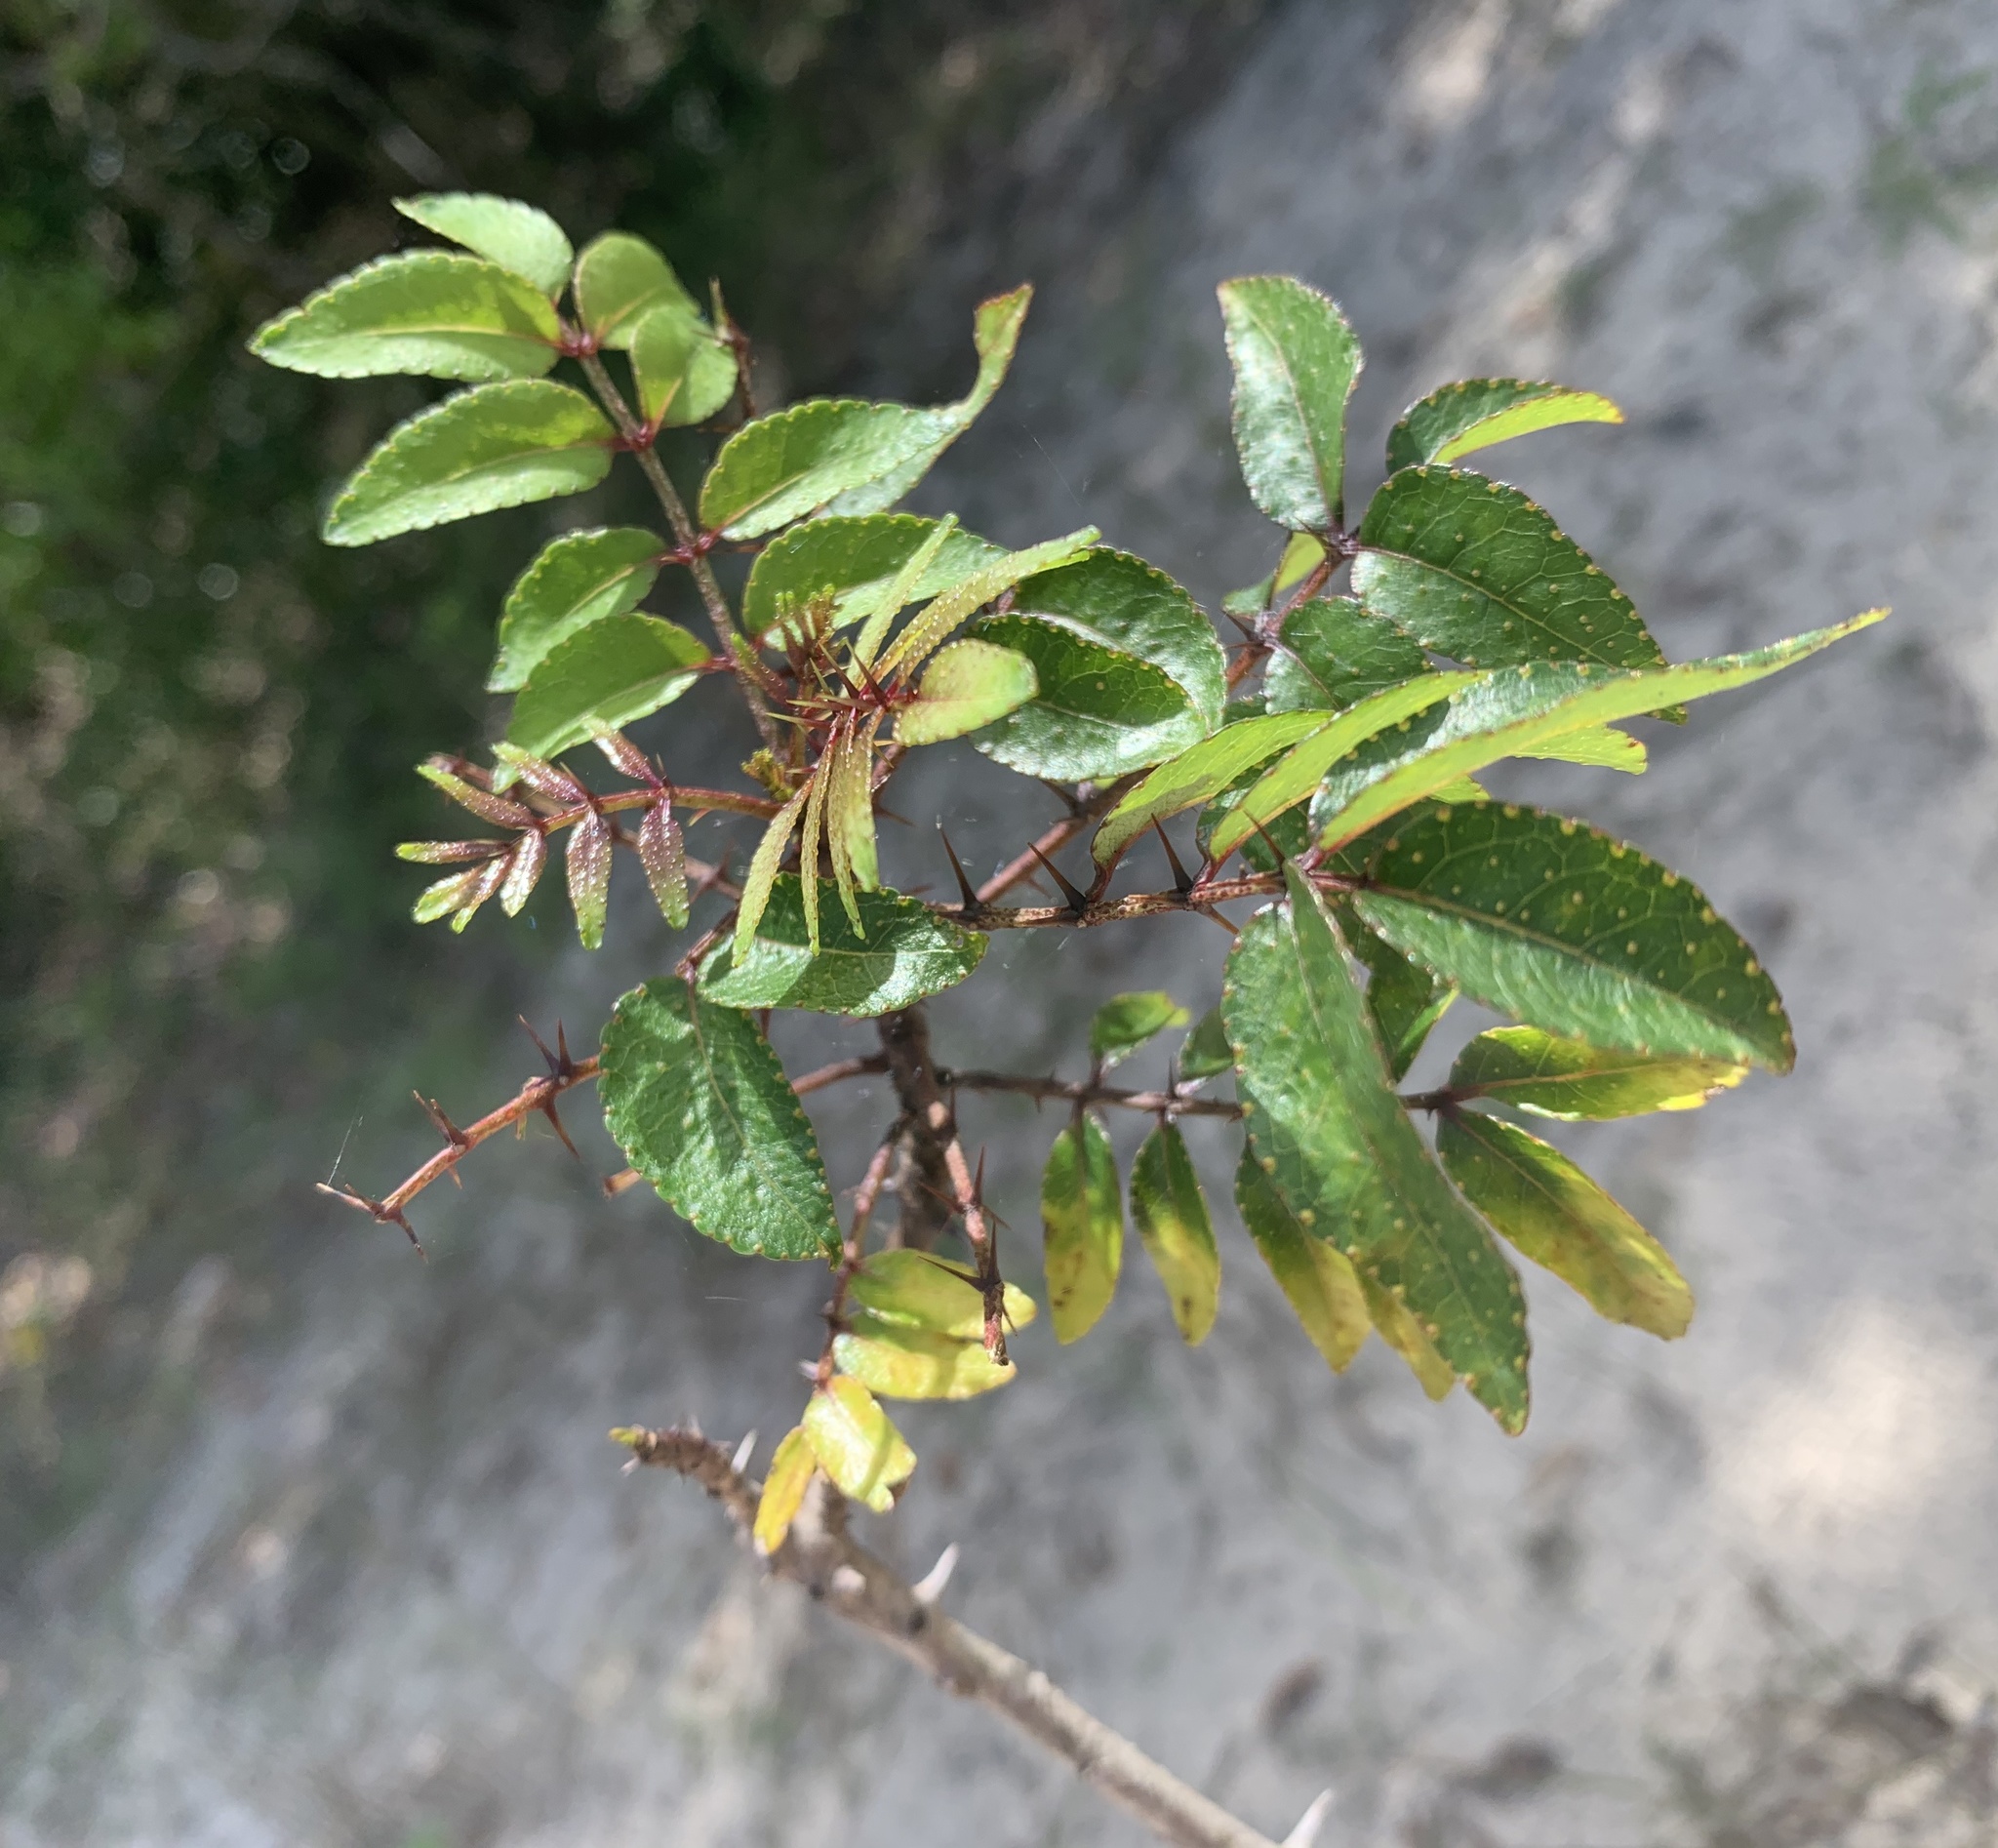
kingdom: Plantae
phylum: Tracheophyta
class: Magnoliopsida
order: Sapindales
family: Rutaceae
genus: Zanthoxylum
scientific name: Zanthoxylum clava-herculis
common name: Hercules'-club
